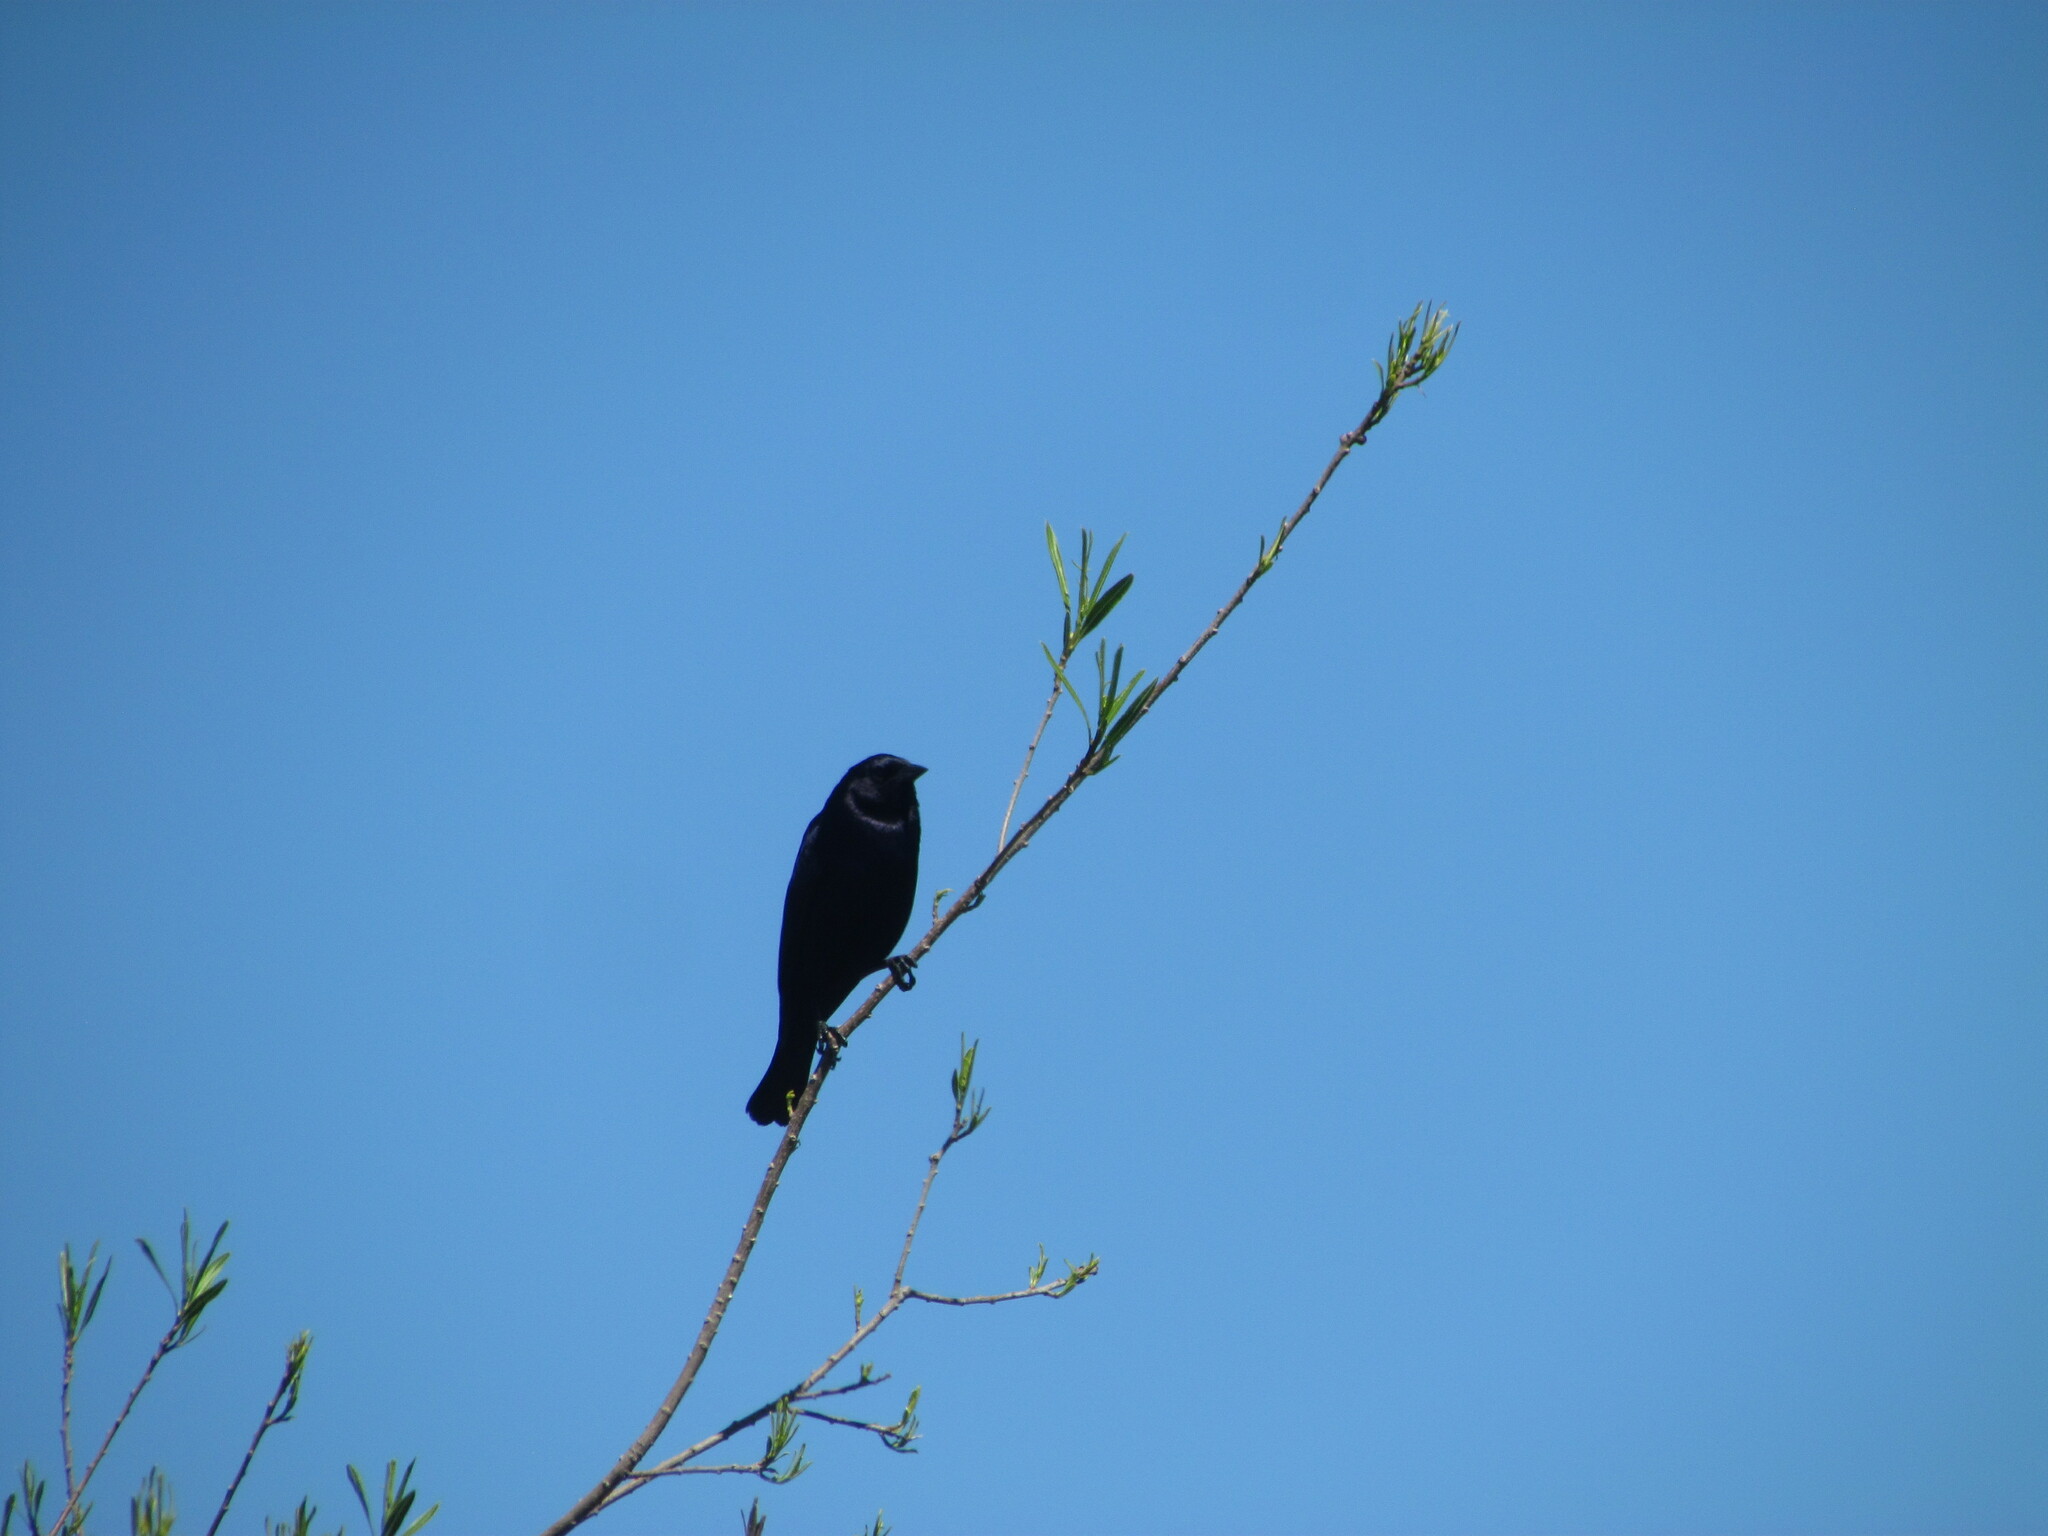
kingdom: Animalia
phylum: Chordata
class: Aves
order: Passeriformes
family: Icteridae
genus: Molothrus
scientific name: Molothrus rufoaxillaris
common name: Screaming cowbird
